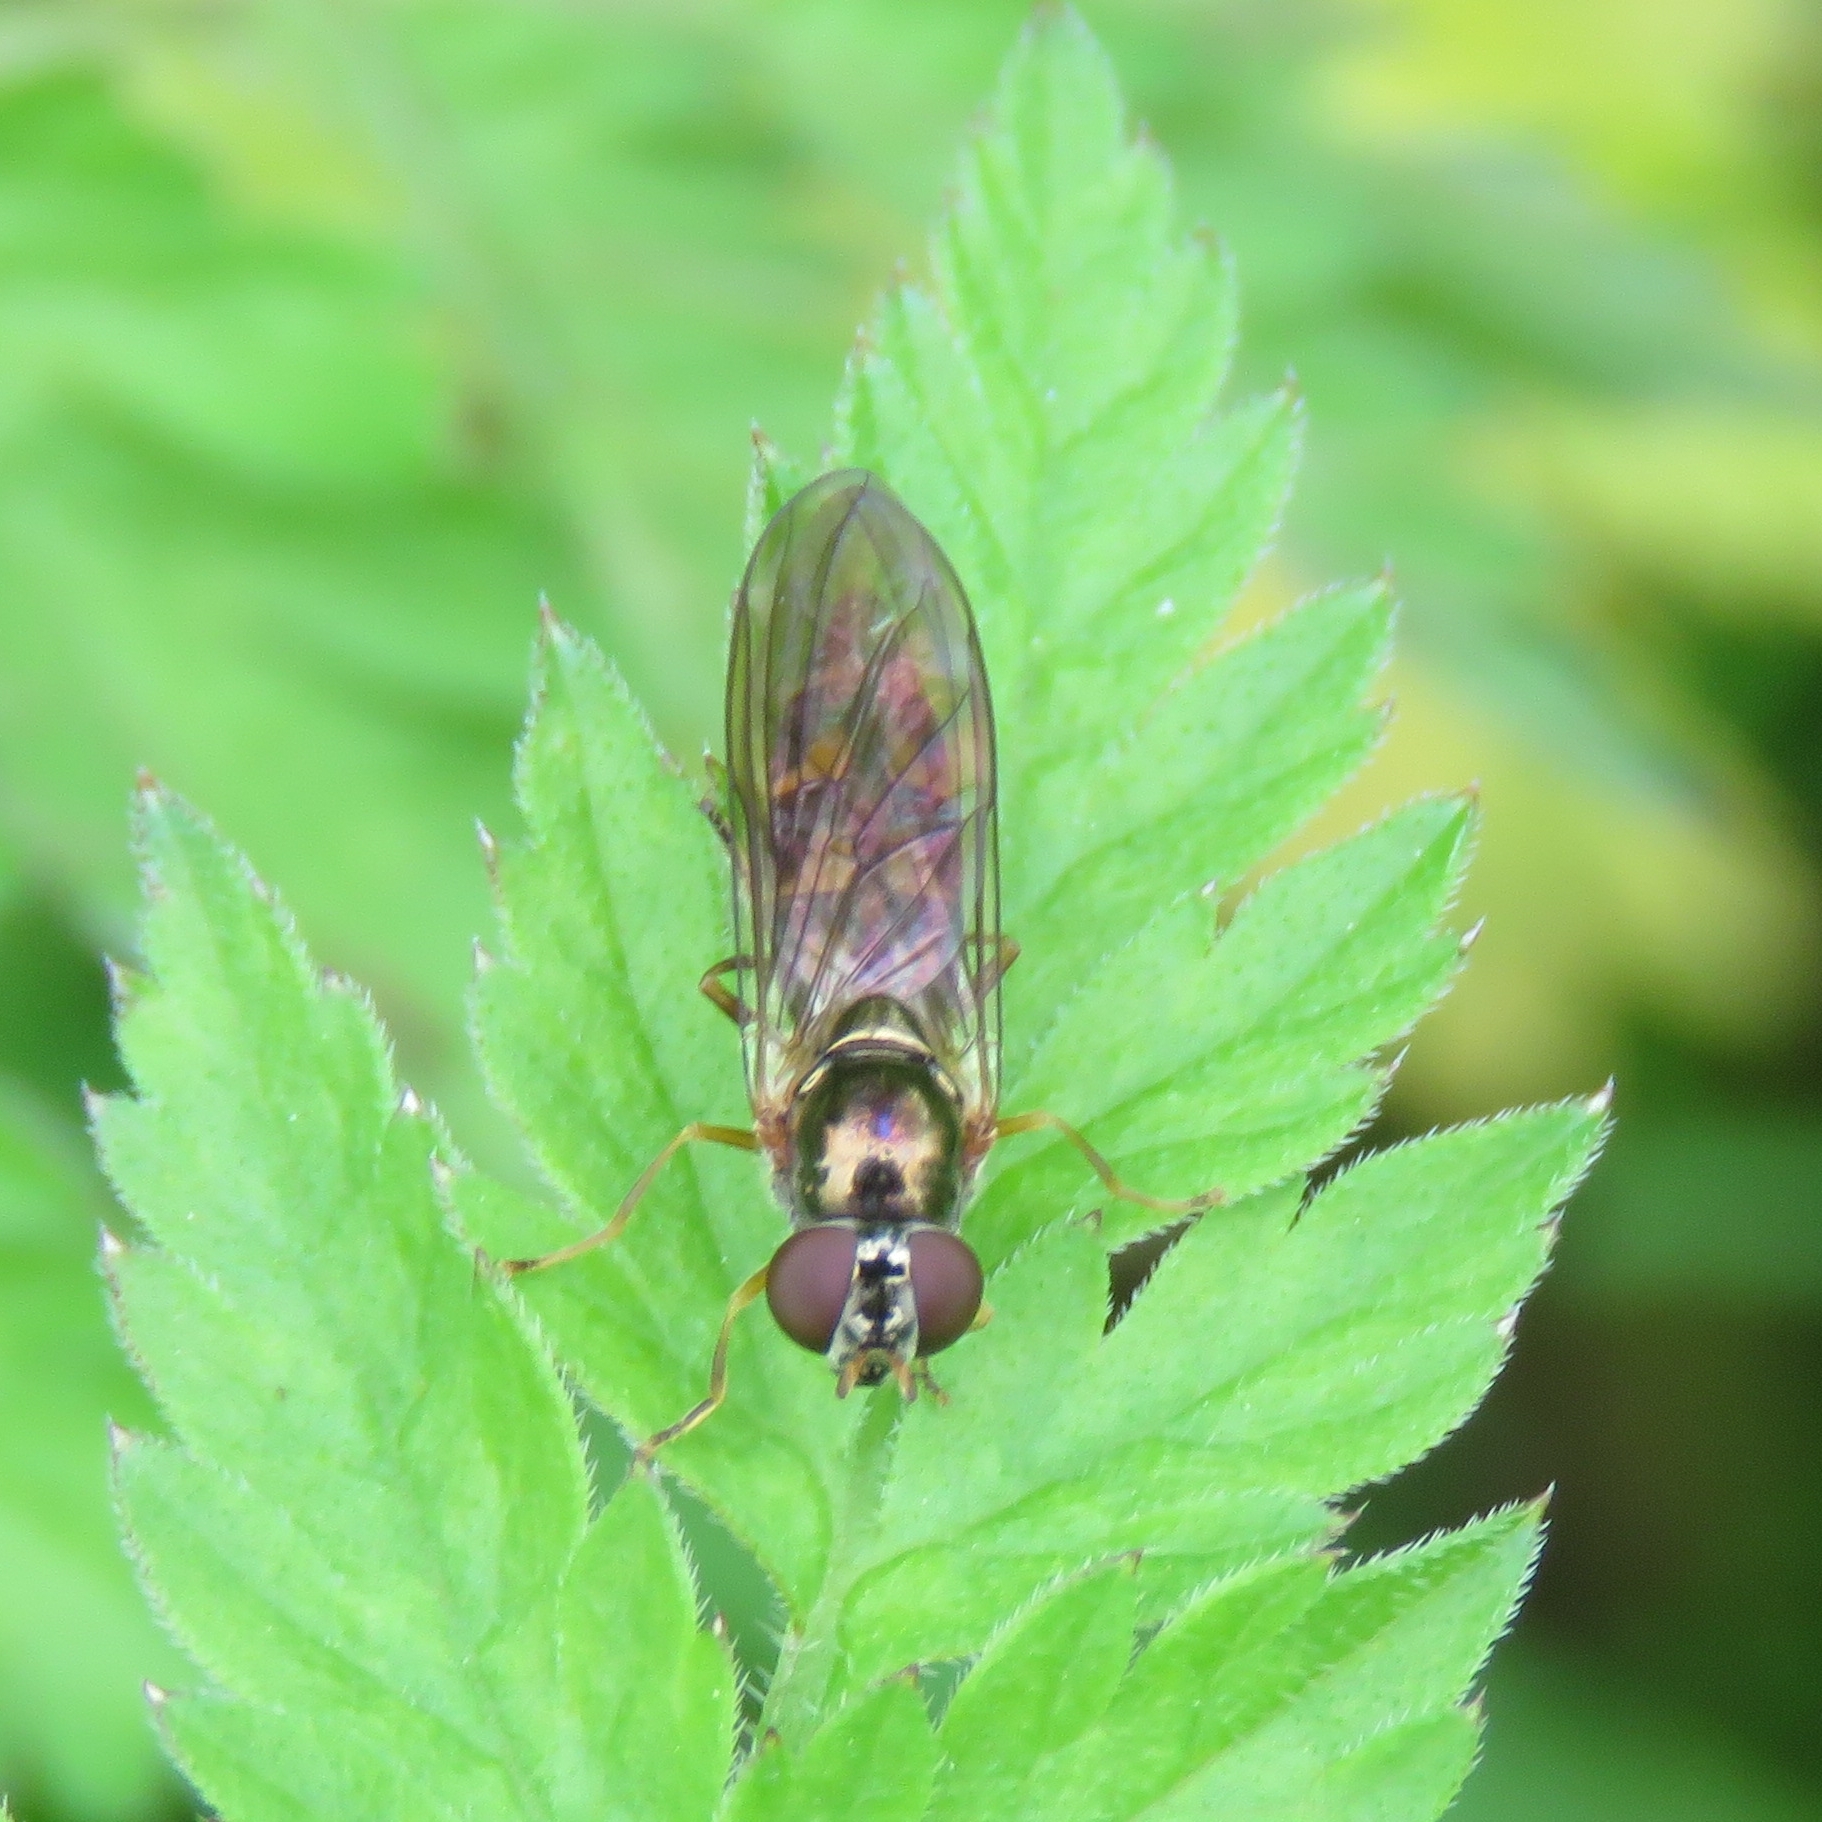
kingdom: Animalia
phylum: Arthropoda
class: Insecta
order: Diptera
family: Syrphidae
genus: Melanostoma
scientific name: Melanostoma scalare
